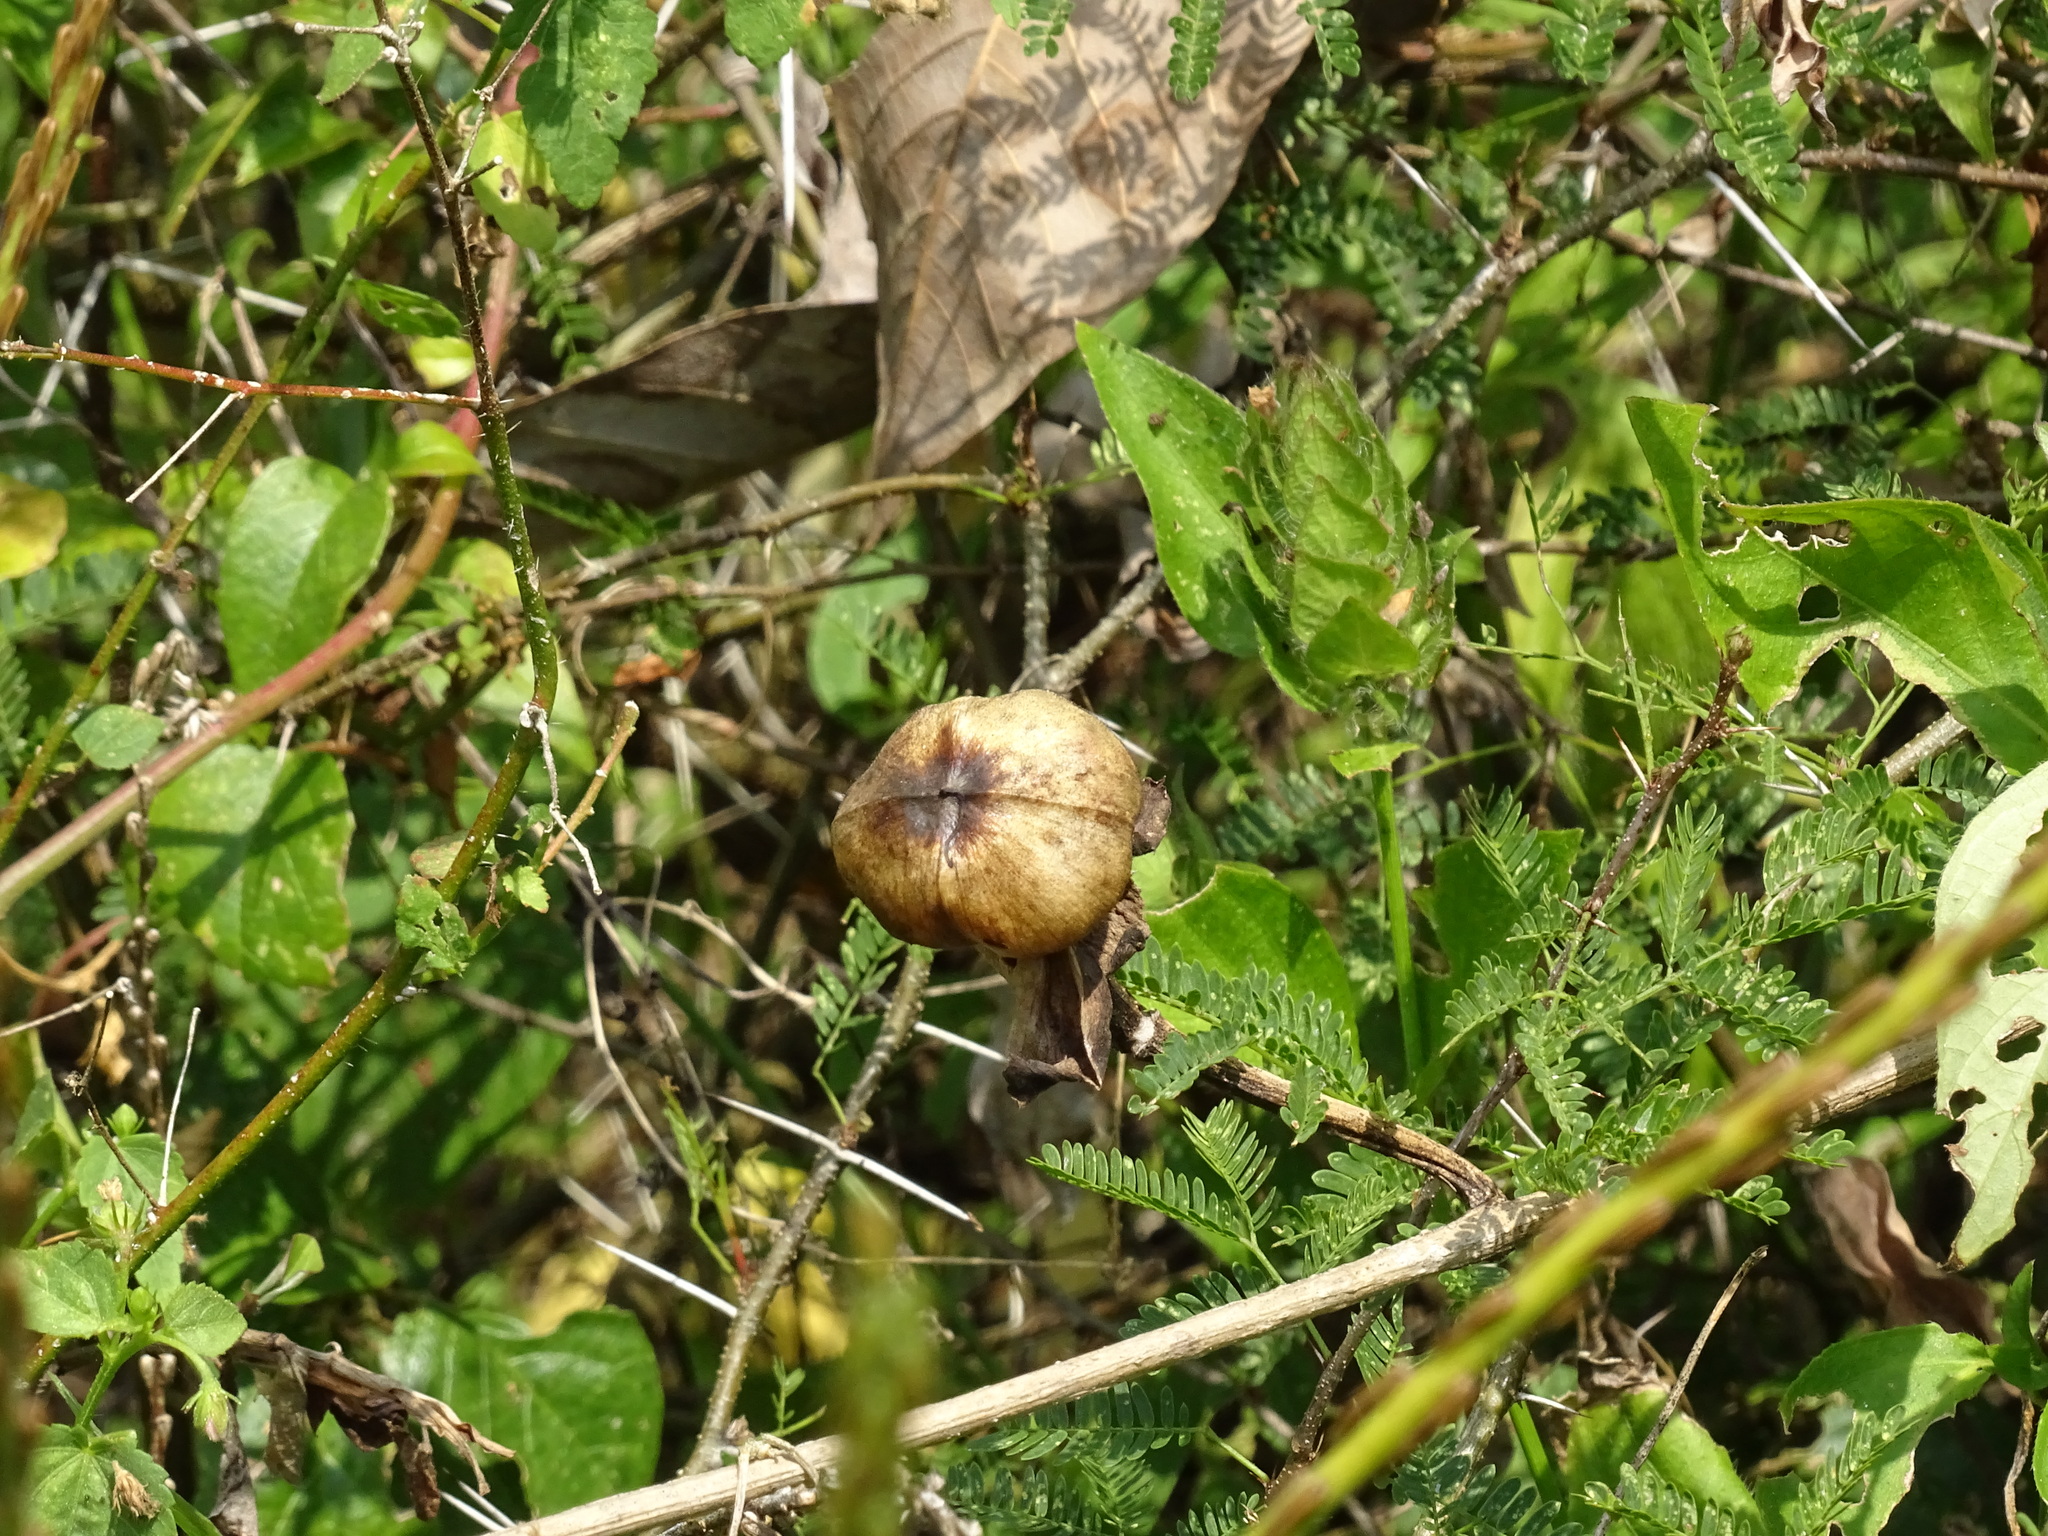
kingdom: Plantae
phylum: Tracheophyta
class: Magnoliopsida
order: Solanales
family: Convolvulaceae
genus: Ipomoea
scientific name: Ipomoea violacea
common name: Beach moonflower
